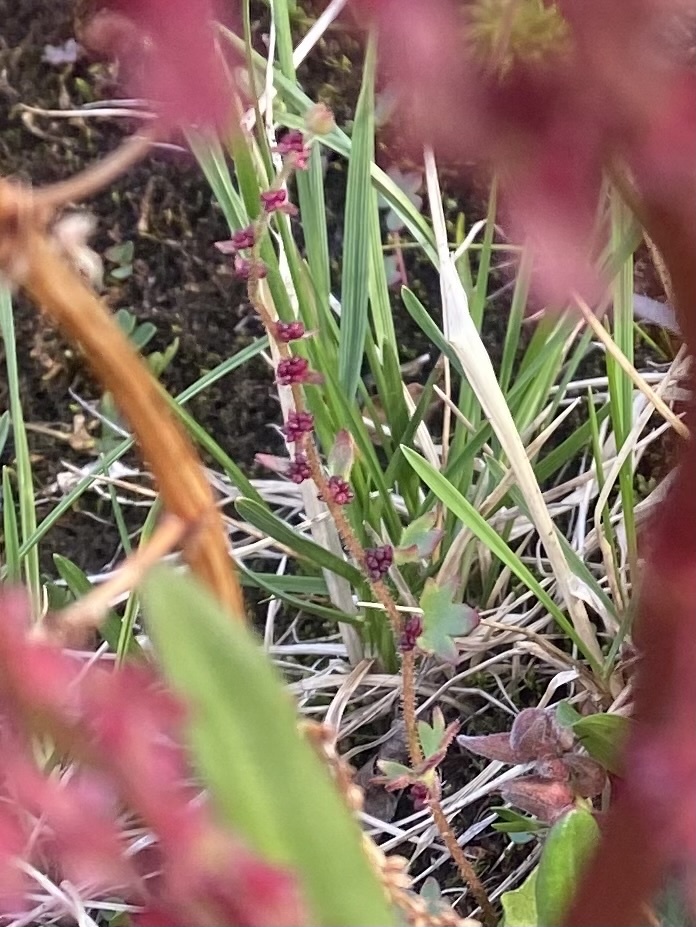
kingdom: Plantae
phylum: Tracheophyta
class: Magnoliopsida
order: Saxifragales
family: Saxifragaceae
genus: Saxifraga
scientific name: Saxifraga cernua
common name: Drooping saxifrage
